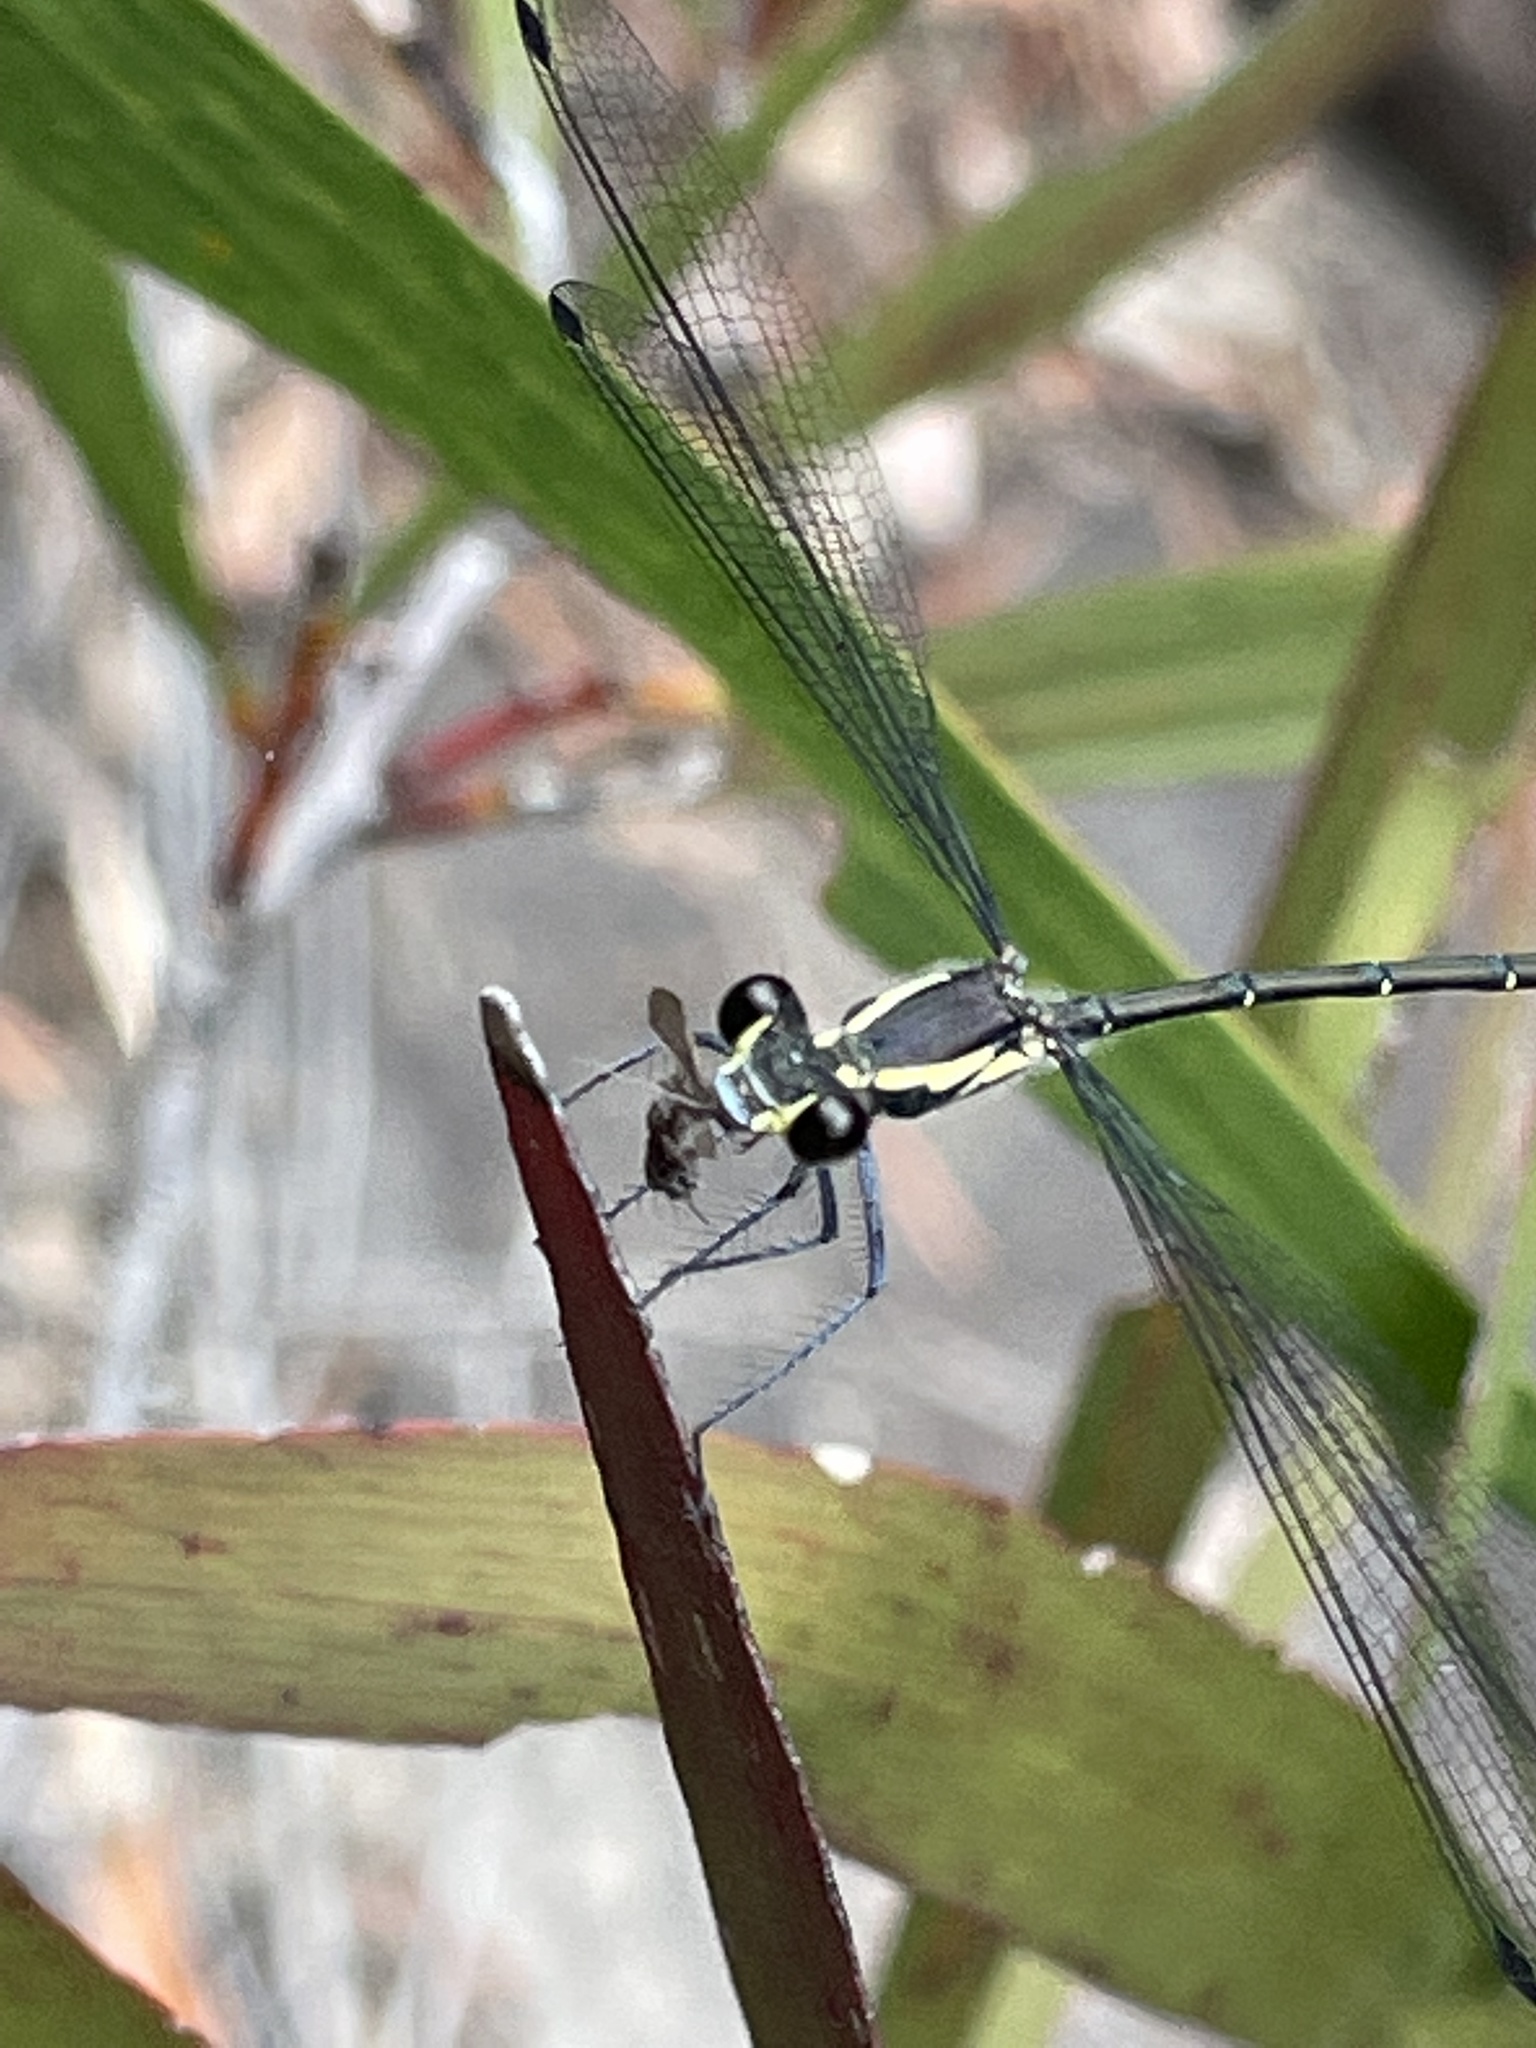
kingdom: Animalia
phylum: Arthropoda
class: Insecta
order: Odonata
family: Argiolestidae
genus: Austroargiolestes
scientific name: Austroargiolestes icteromelas
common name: Common flatwing
